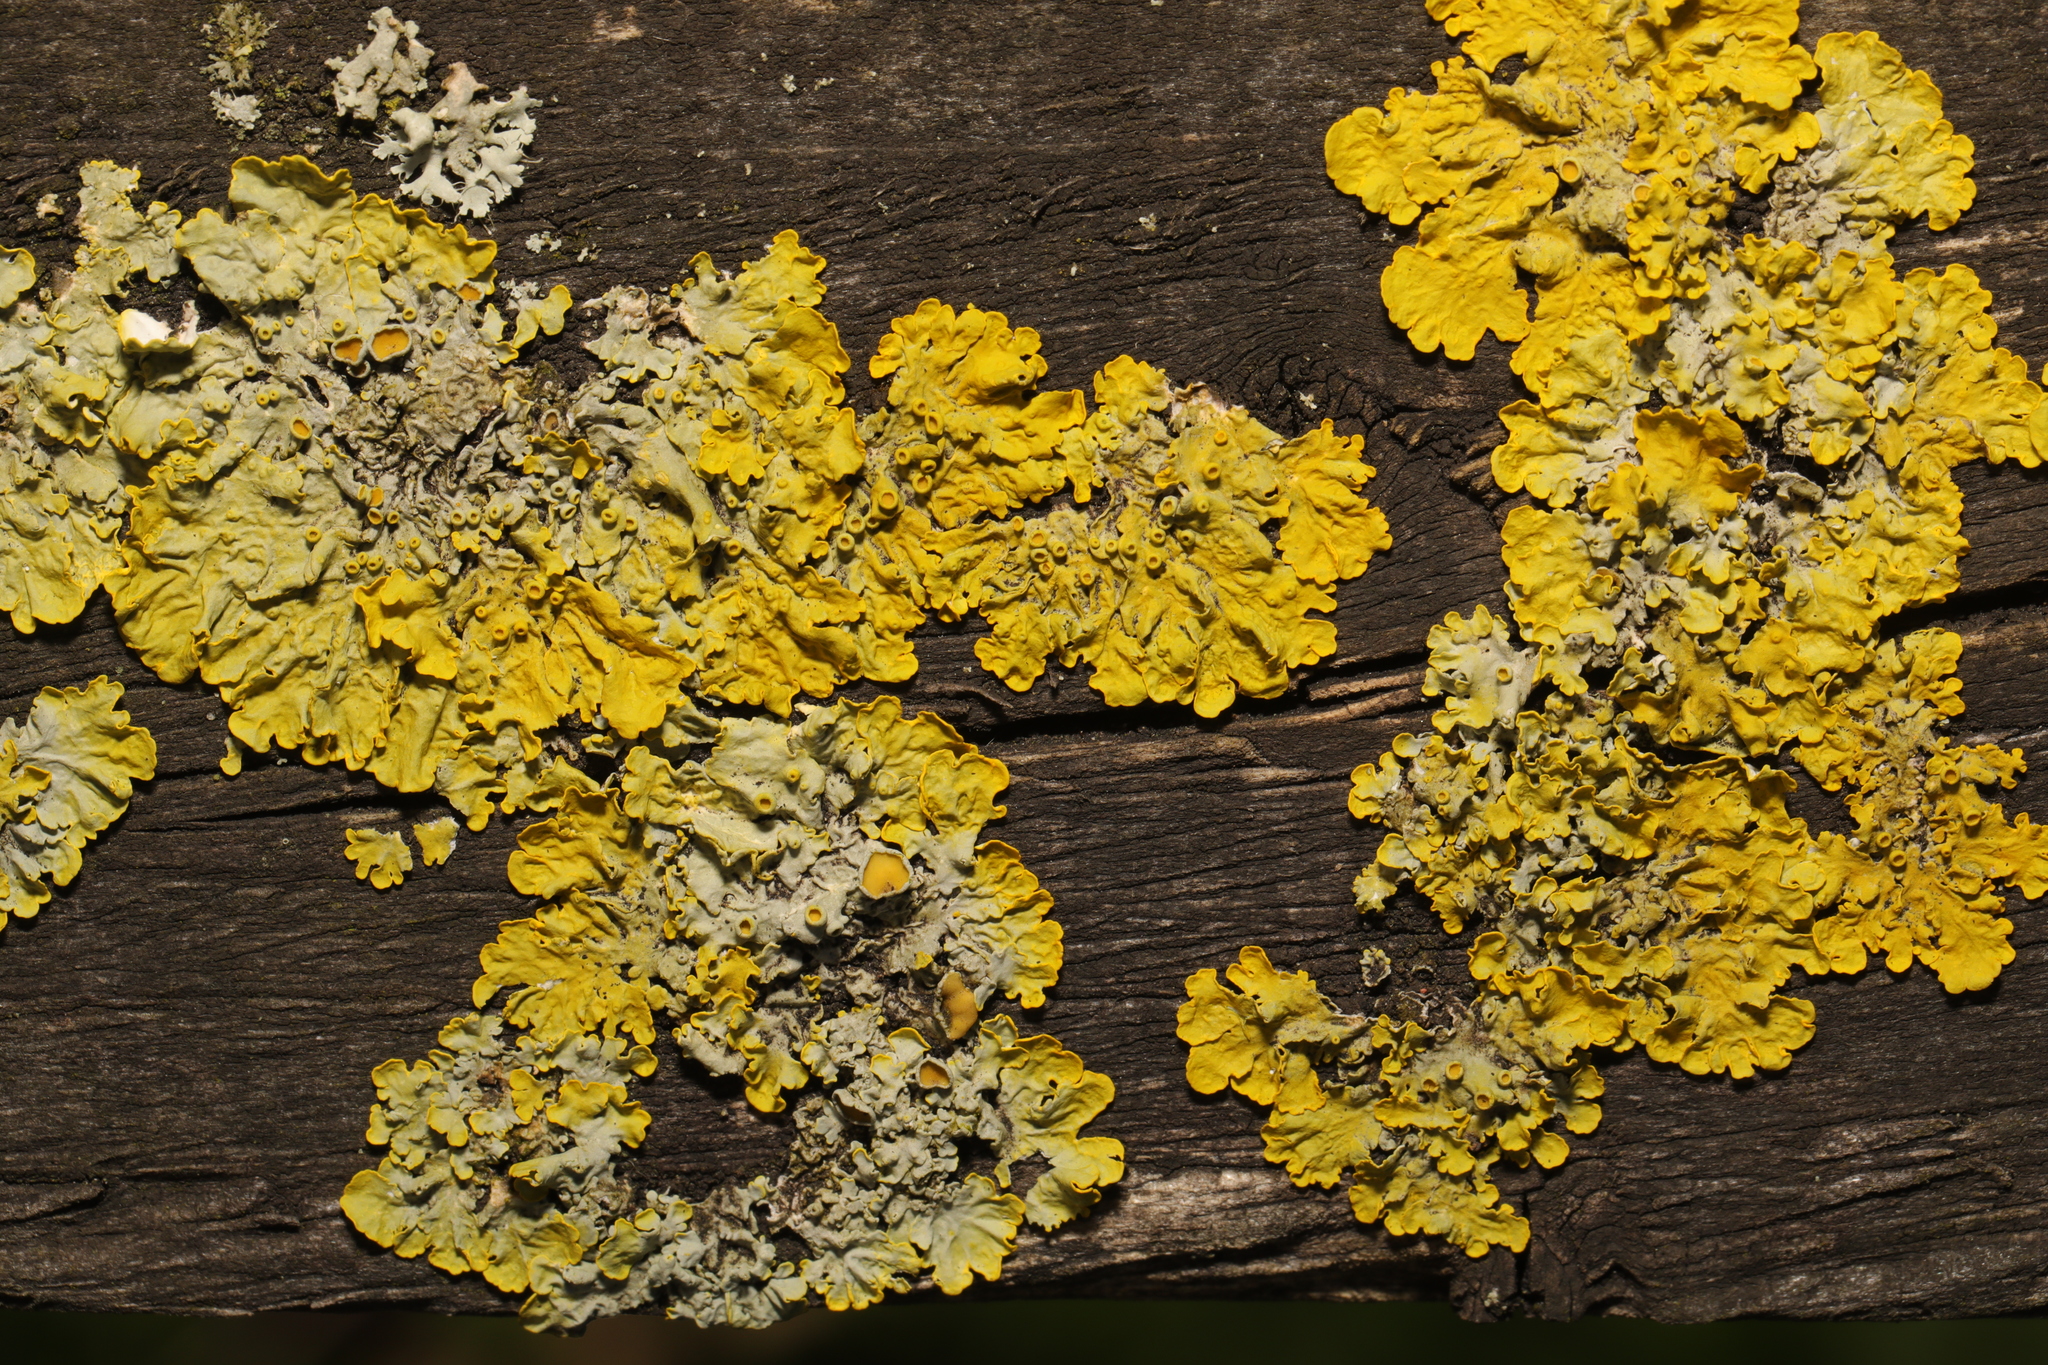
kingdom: Fungi
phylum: Ascomycota
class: Lecanoromycetes
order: Teloschistales
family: Teloschistaceae
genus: Xanthoria
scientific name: Xanthoria parietina
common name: Common orange lichen
